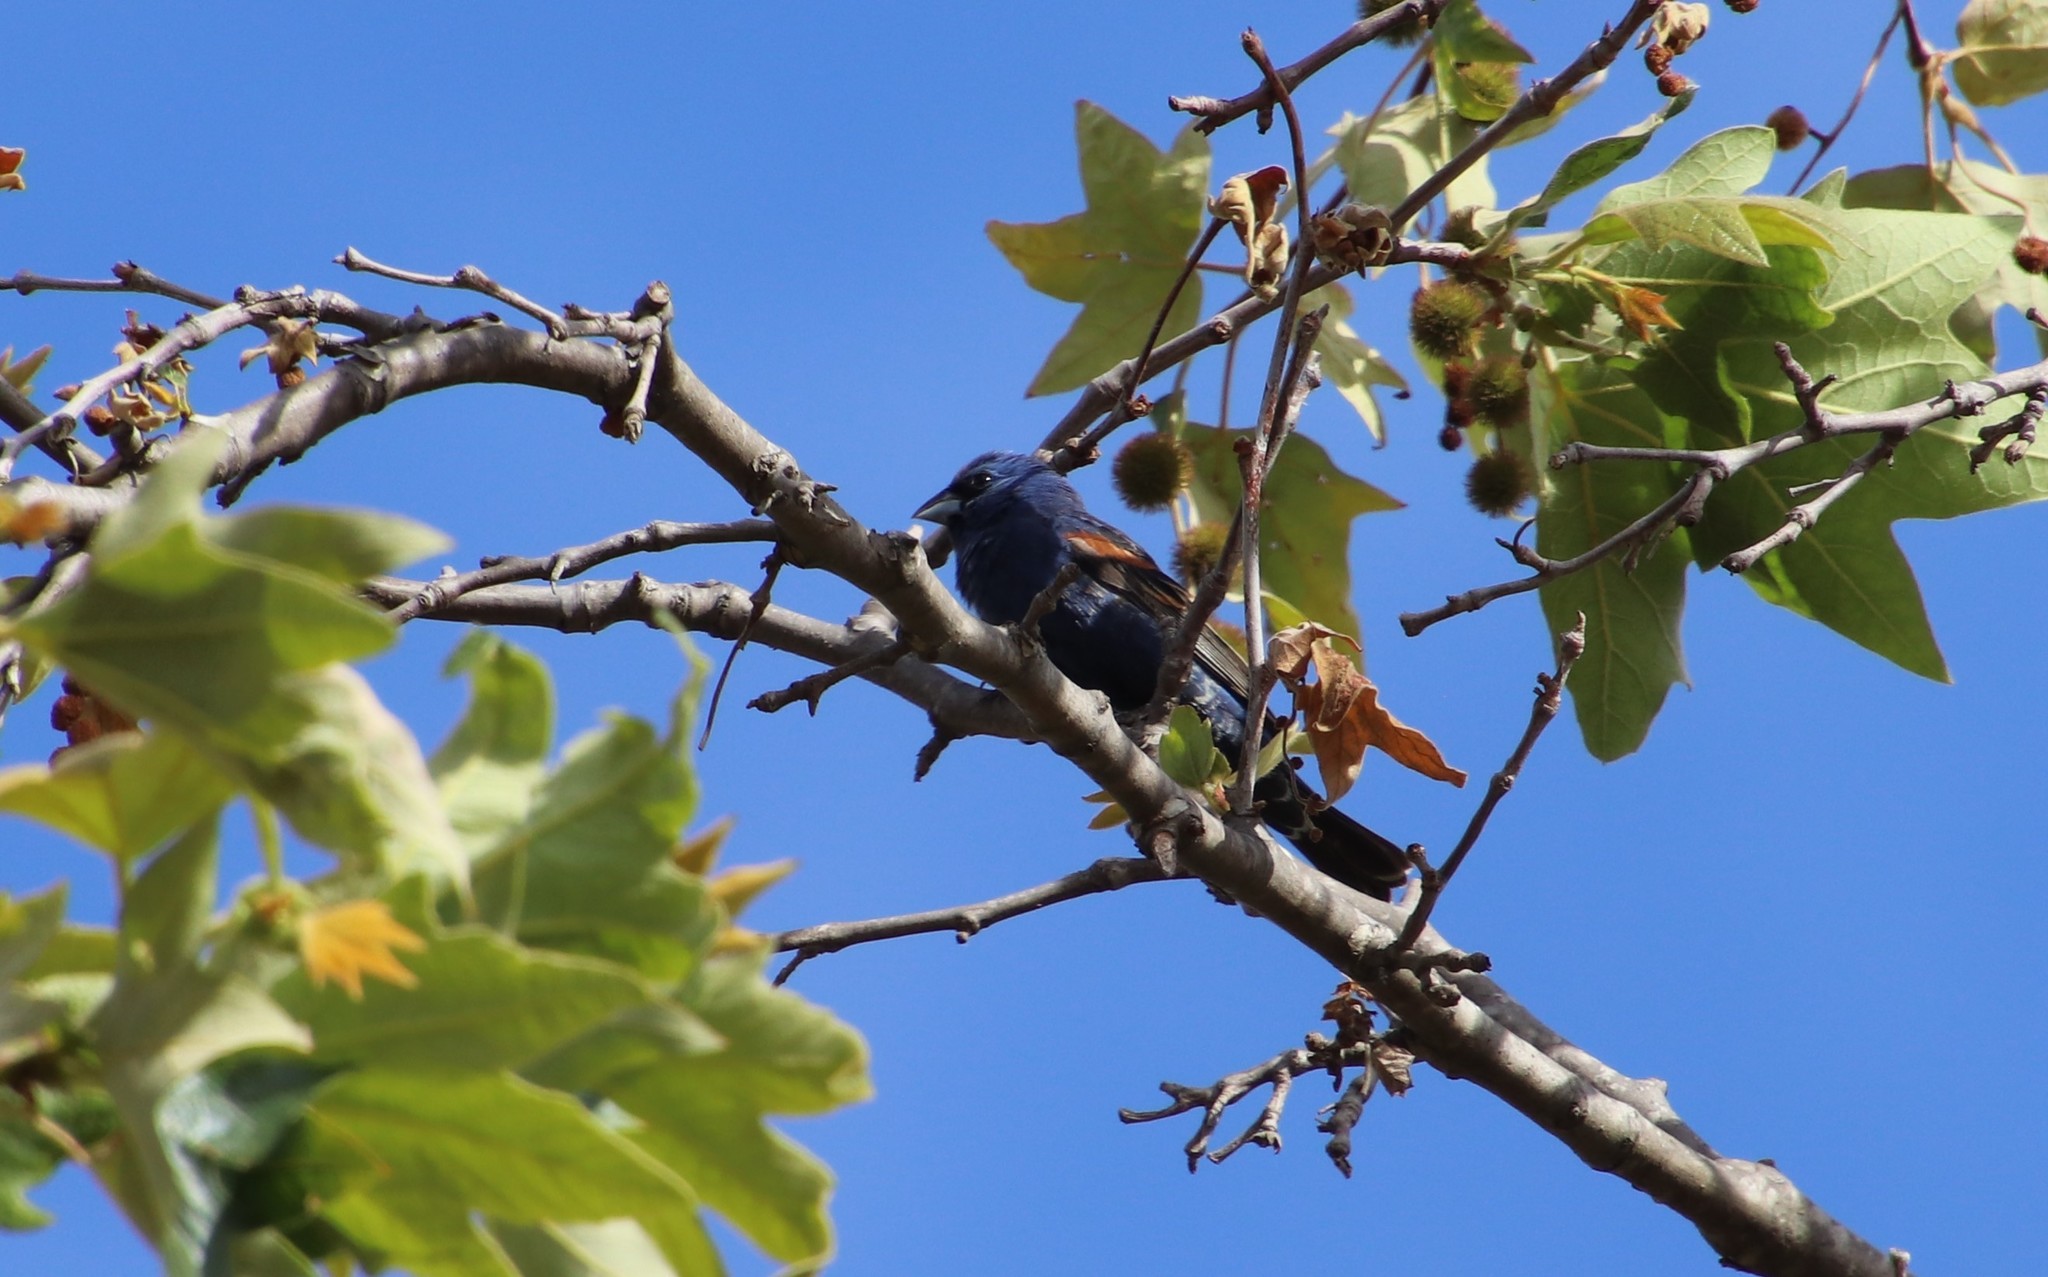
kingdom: Animalia
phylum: Chordata
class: Aves
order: Passeriformes
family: Cardinalidae
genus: Passerina
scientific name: Passerina caerulea
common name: Blue grosbeak
